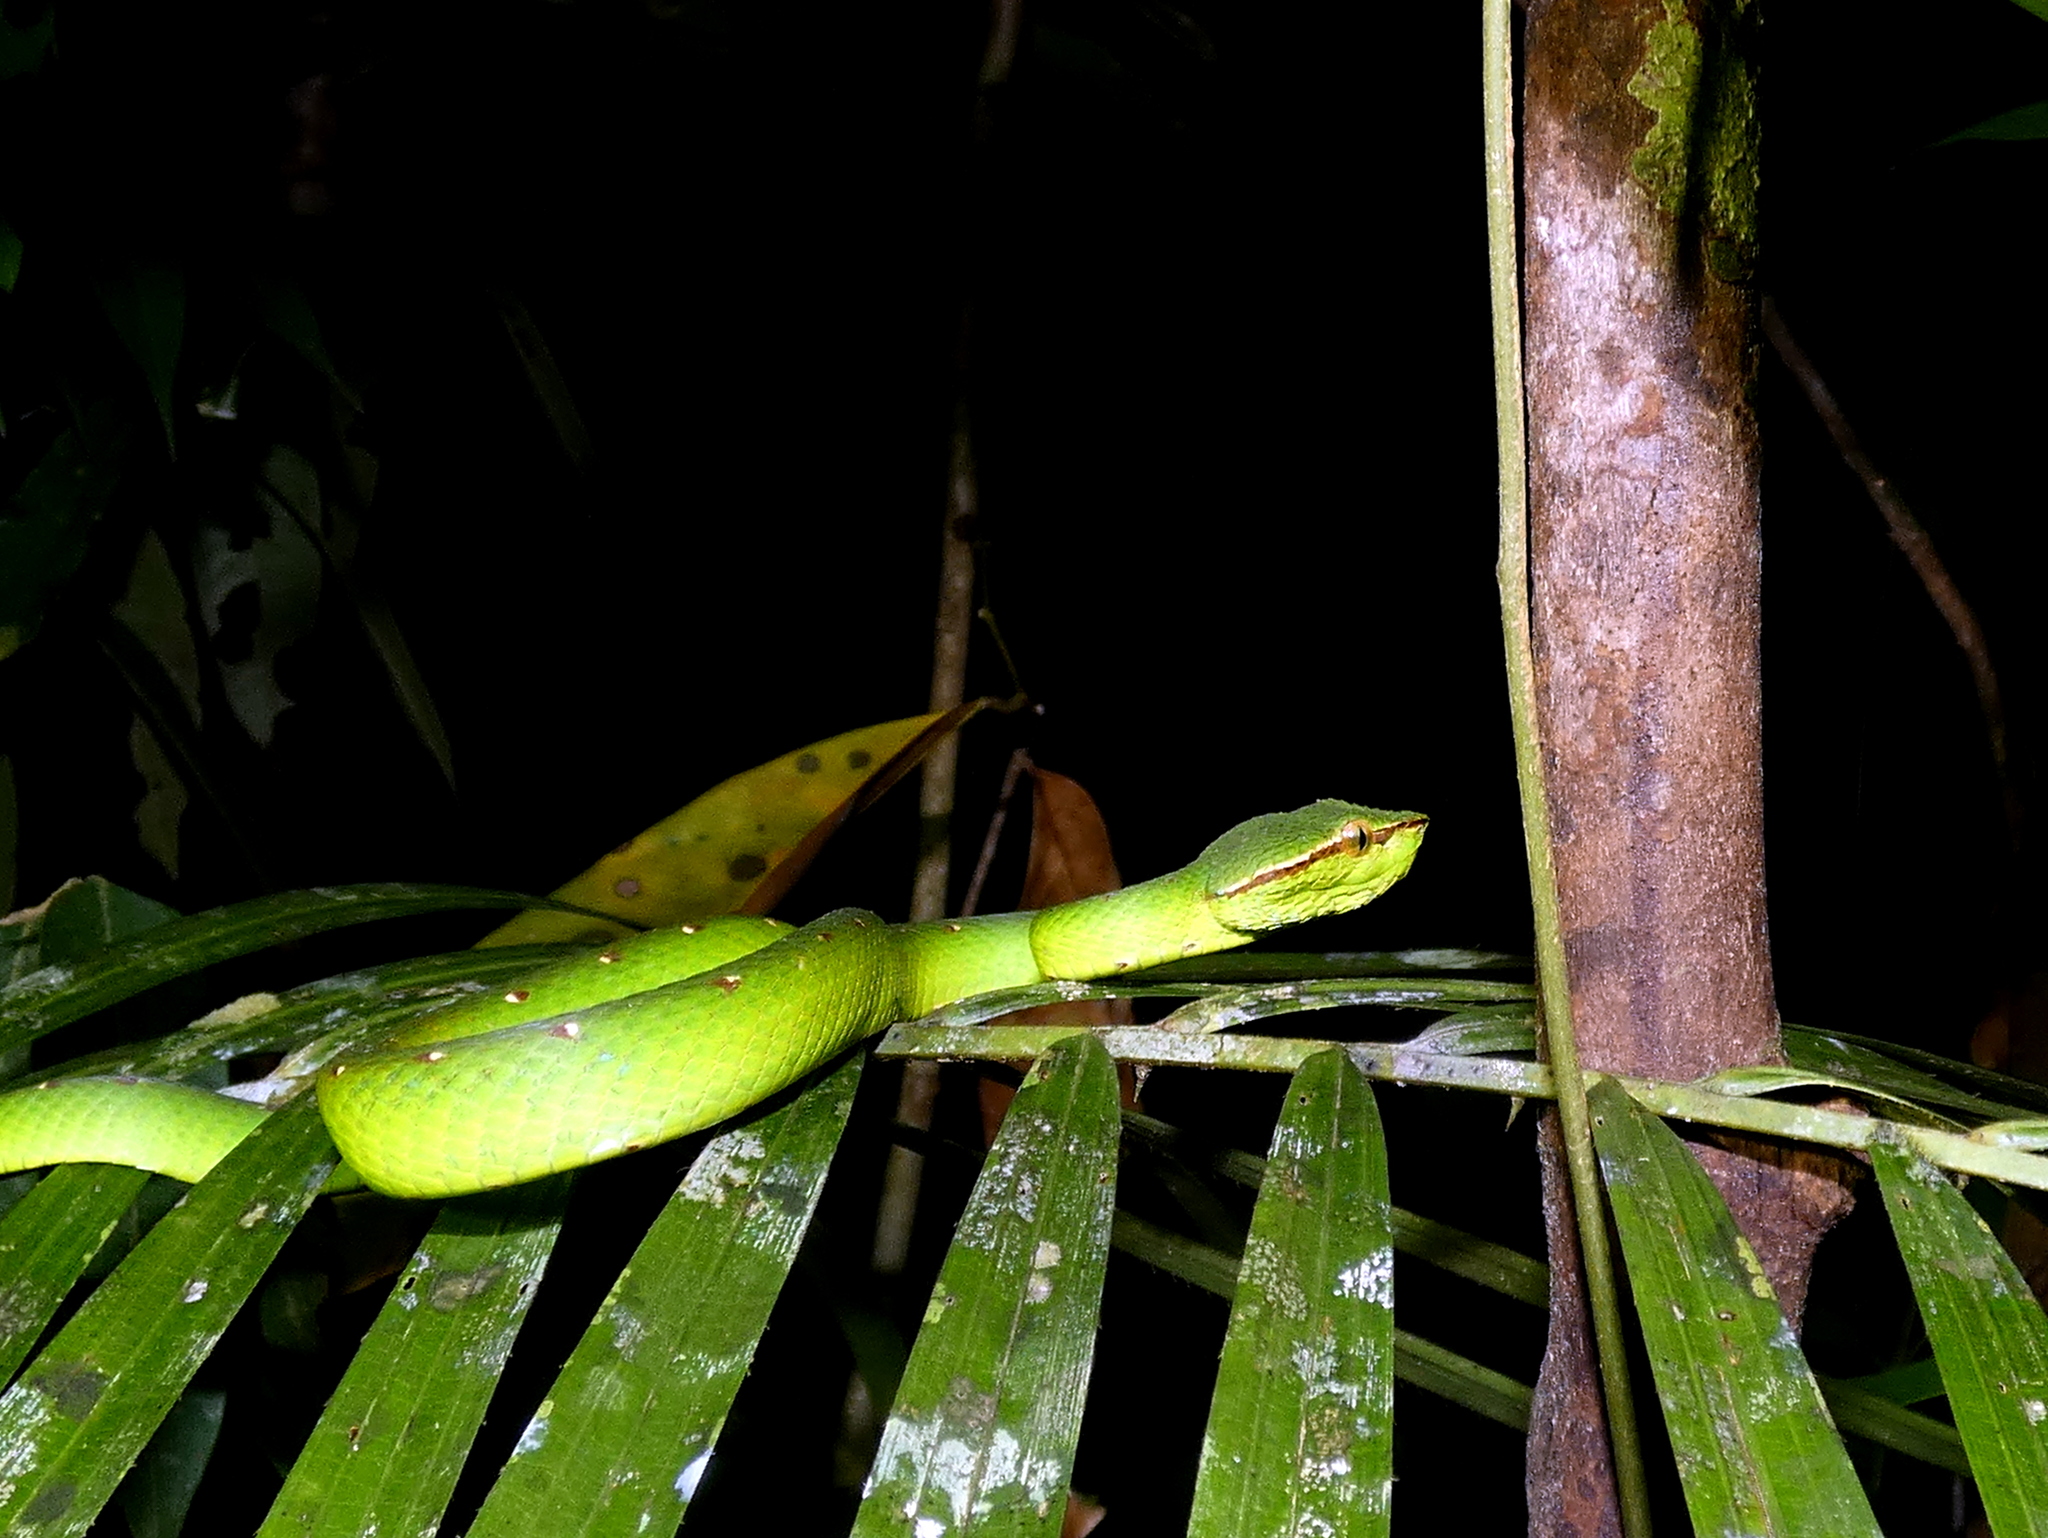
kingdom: Animalia
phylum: Chordata
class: Squamata
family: Viperidae
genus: Tropidolaemus
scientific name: Tropidolaemus subannulatus
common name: North philippine temple pitviper
